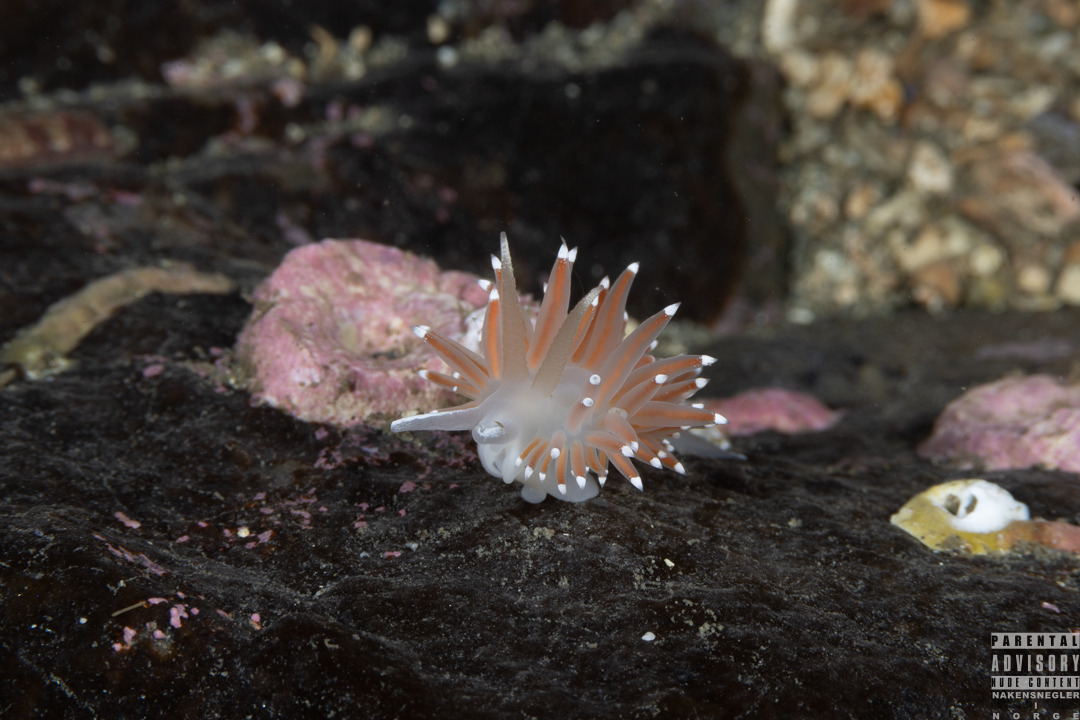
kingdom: Animalia
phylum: Mollusca
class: Gastropoda
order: Nudibranchia
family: Coryphellidae
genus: Coryphella
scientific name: Coryphella browni
